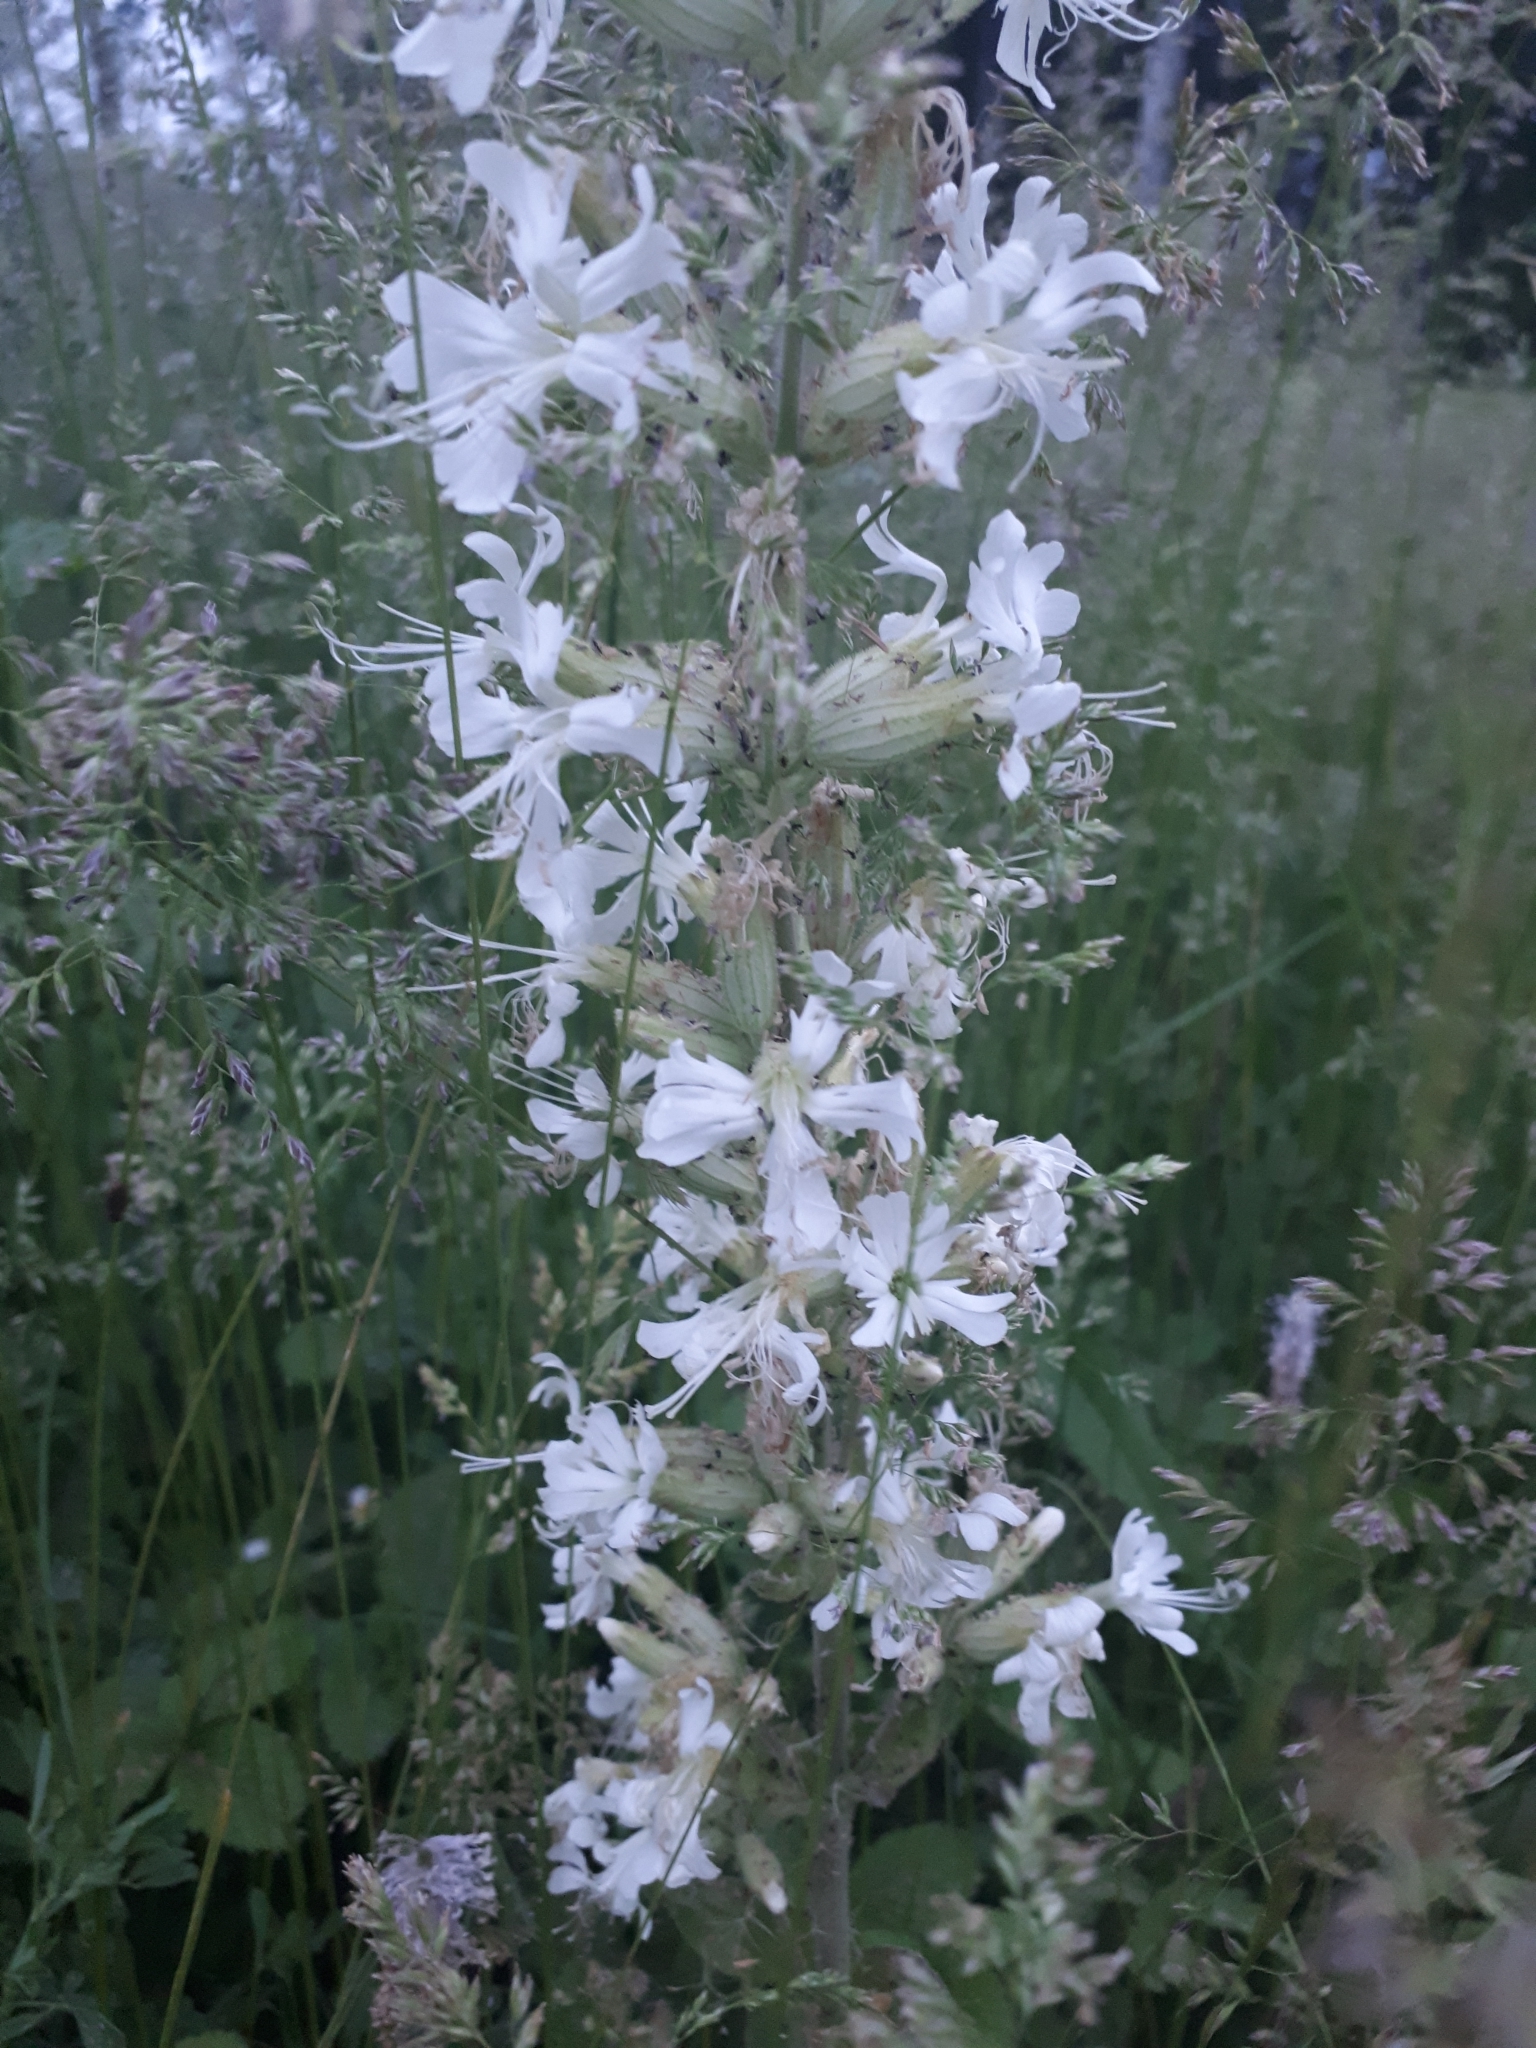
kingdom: Plantae
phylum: Tracheophyta
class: Magnoliopsida
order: Caryophyllales
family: Caryophyllaceae
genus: Silene
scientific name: Silene viscosa
